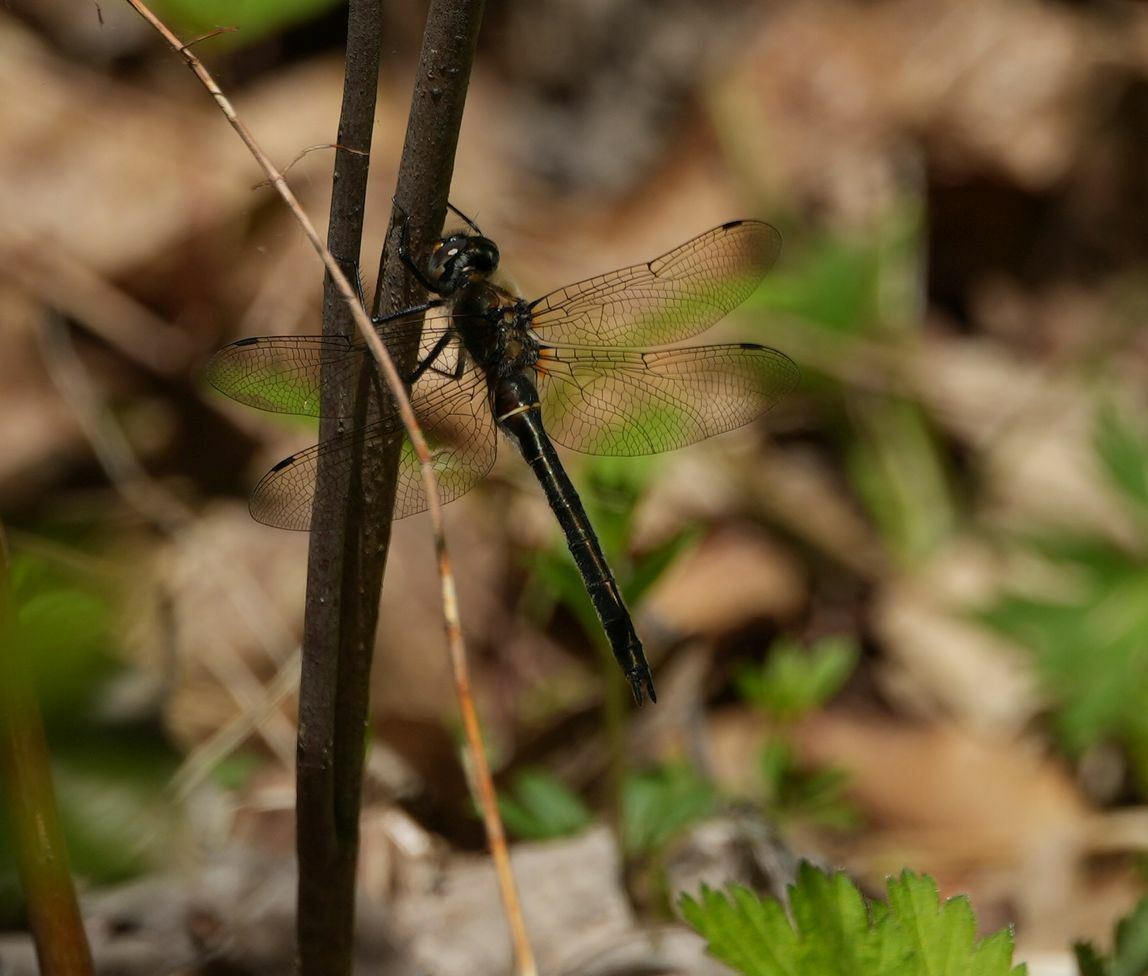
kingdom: Animalia
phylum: Arthropoda
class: Insecta
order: Odonata
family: Corduliidae
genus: Cordulia
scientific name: Cordulia shurtleffii
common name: American emerald
